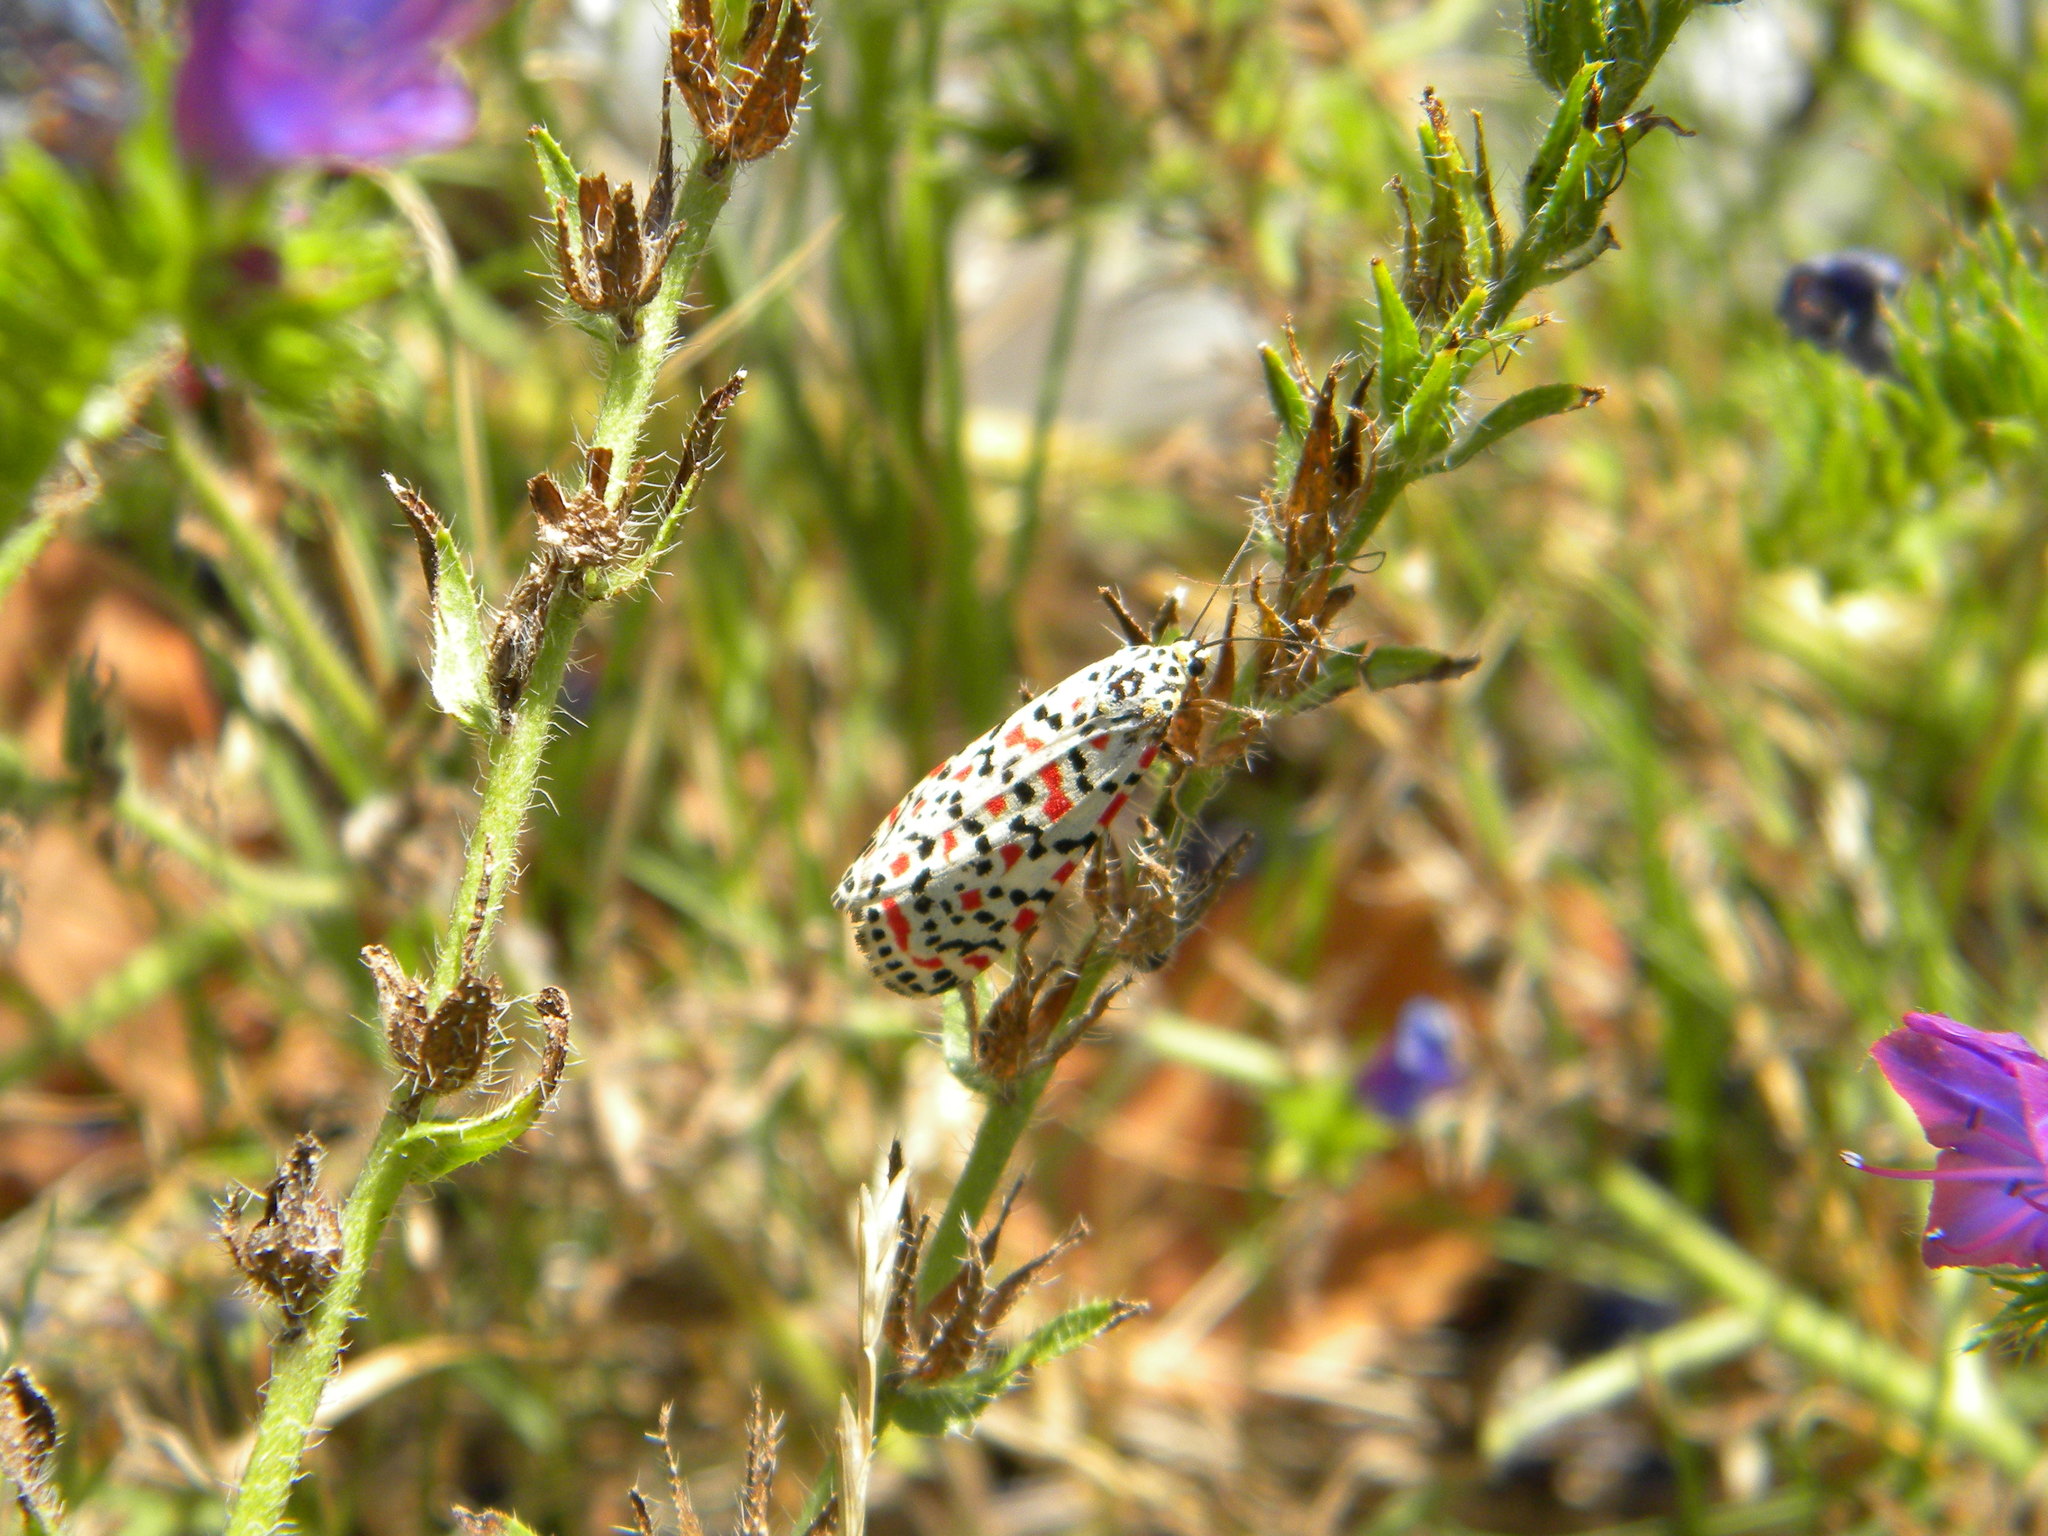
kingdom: Animalia
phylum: Arthropoda
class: Insecta
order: Lepidoptera
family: Erebidae
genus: Utetheisa
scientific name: Utetheisa pulchella
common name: Crimson speckled
